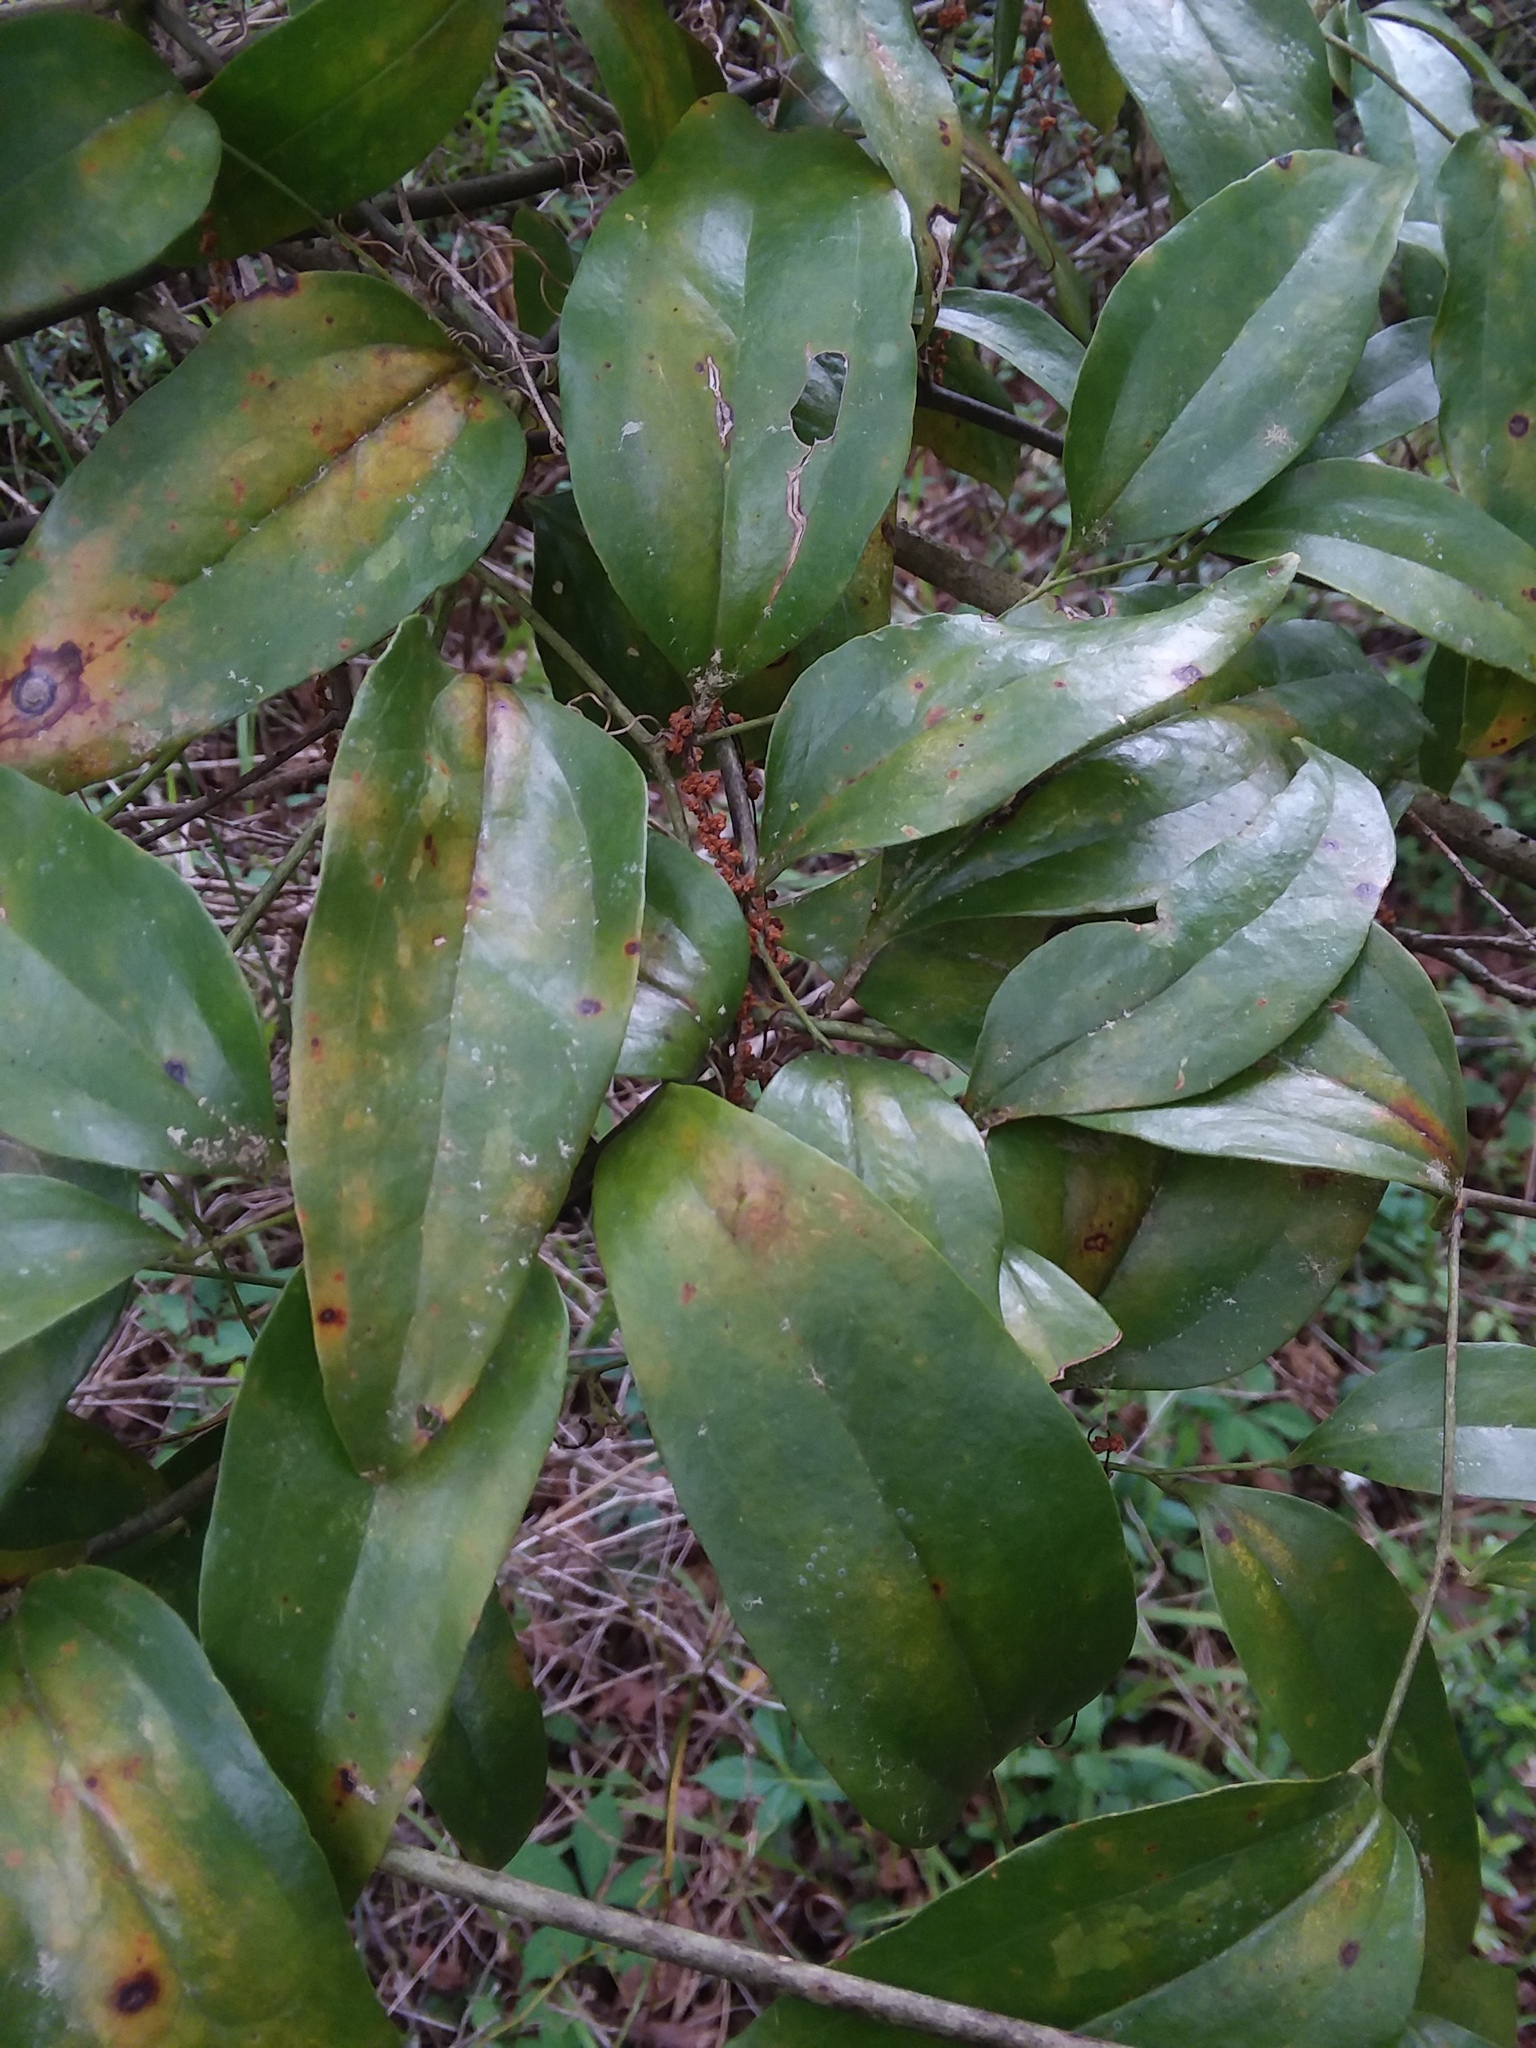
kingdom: Plantae
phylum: Tracheophyta
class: Liliopsida
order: Liliales
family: Smilacaceae
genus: Smilax
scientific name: Smilax maritima
